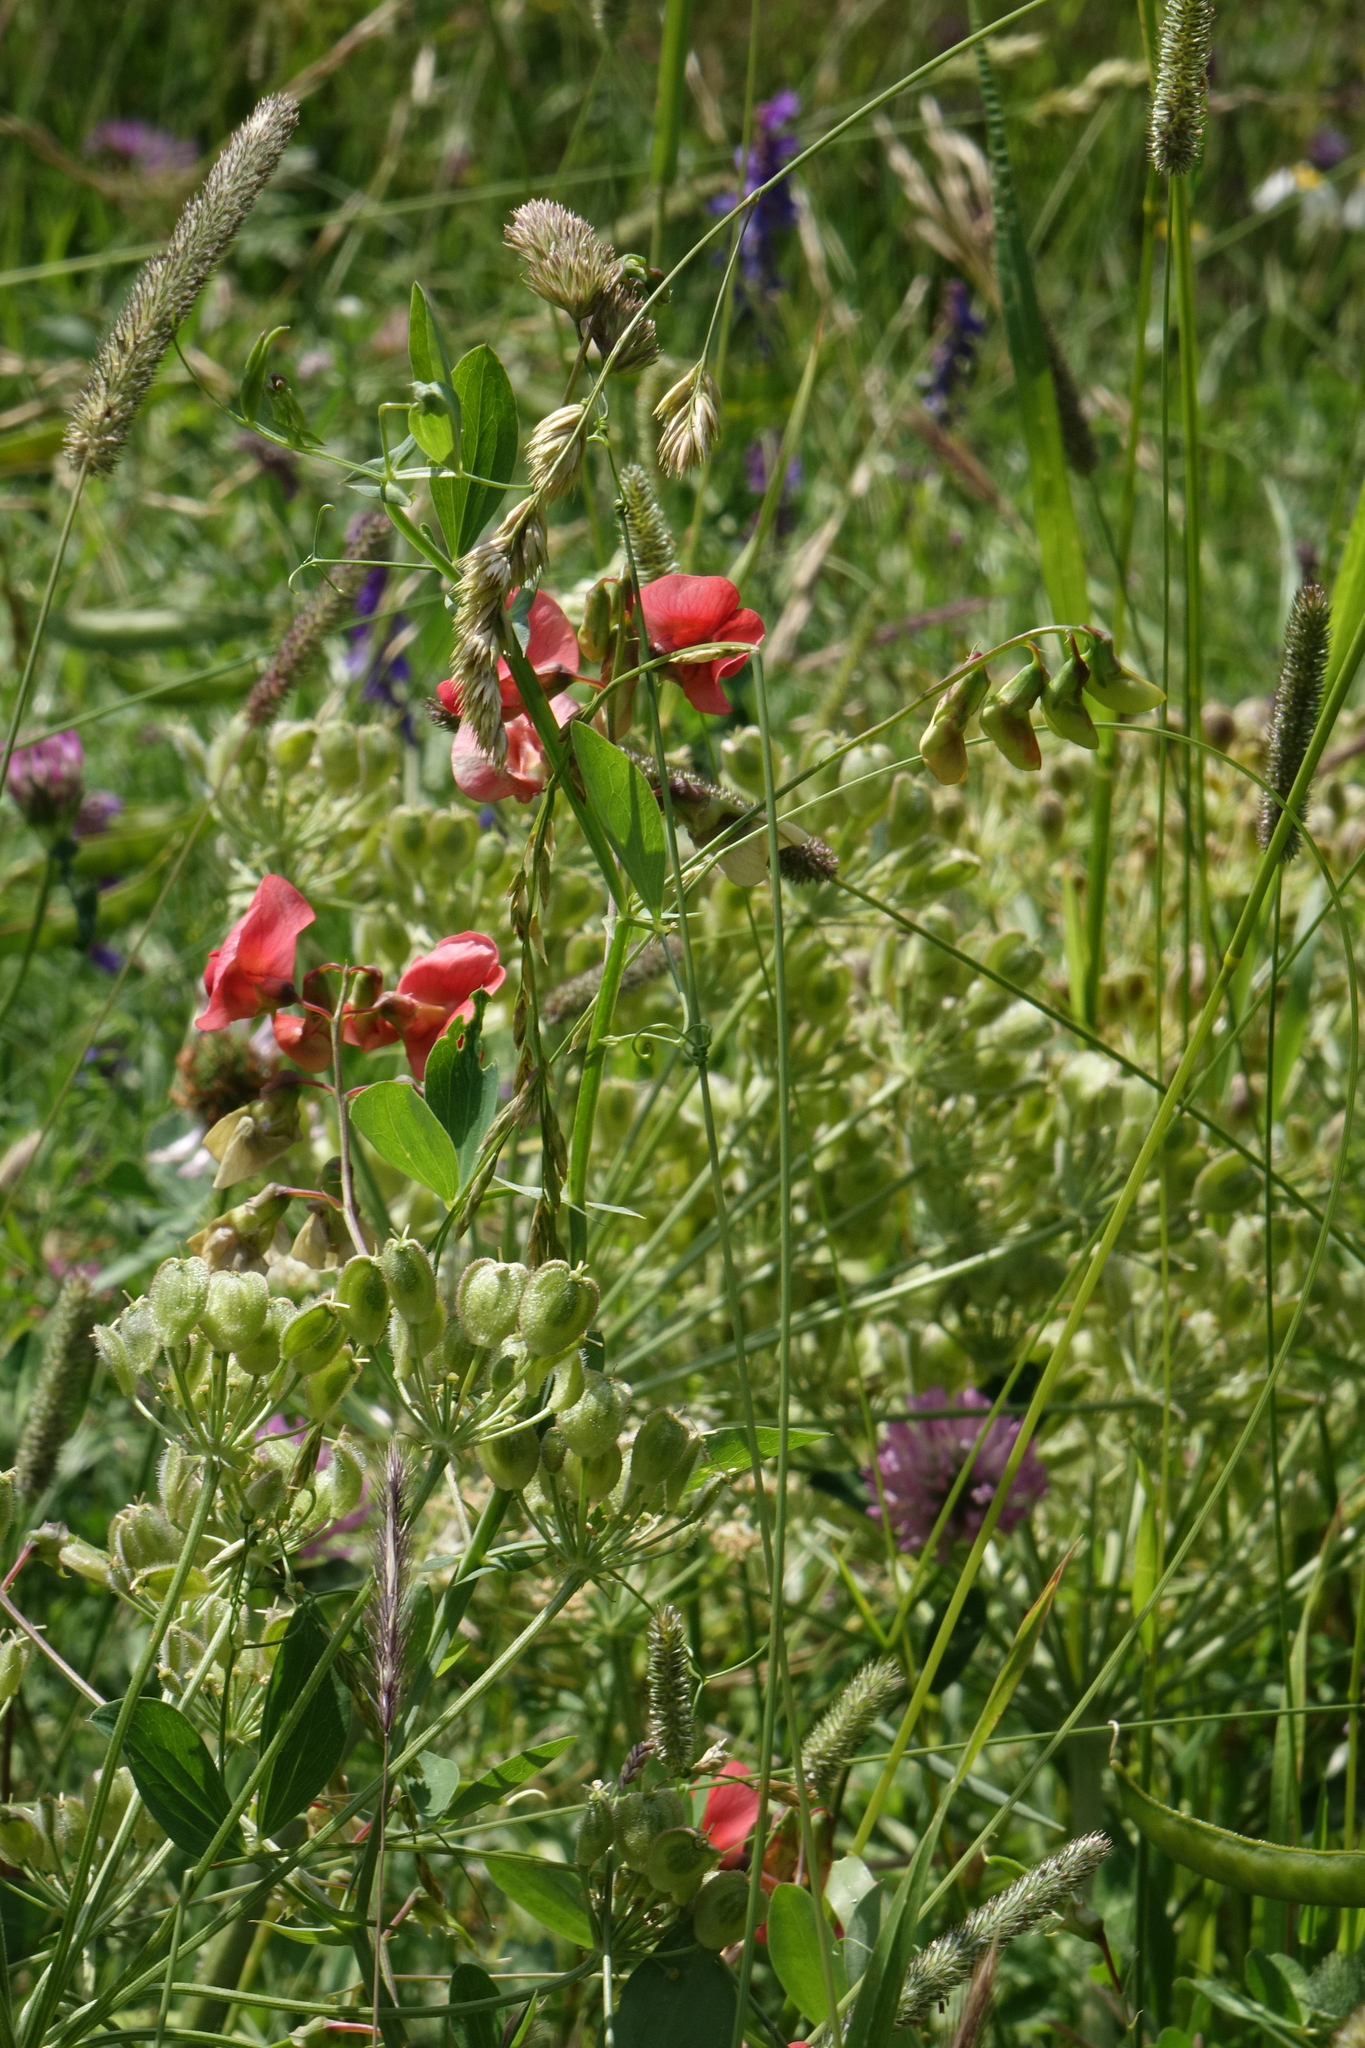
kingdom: Plantae
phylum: Tracheophyta
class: Magnoliopsida
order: Fabales
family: Fabaceae
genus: Lathyrus
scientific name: Lathyrus miniatus
